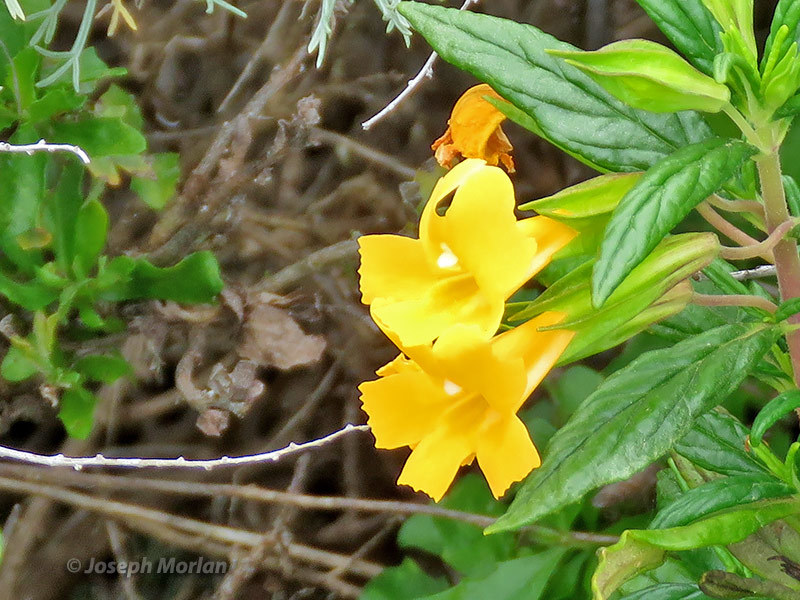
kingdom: Plantae
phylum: Tracheophyta
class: Magnoliopsida
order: Lamiales
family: Phrymaceae
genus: Diplacus
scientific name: Diplacus aurantiacus
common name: Bush monkey-flower
